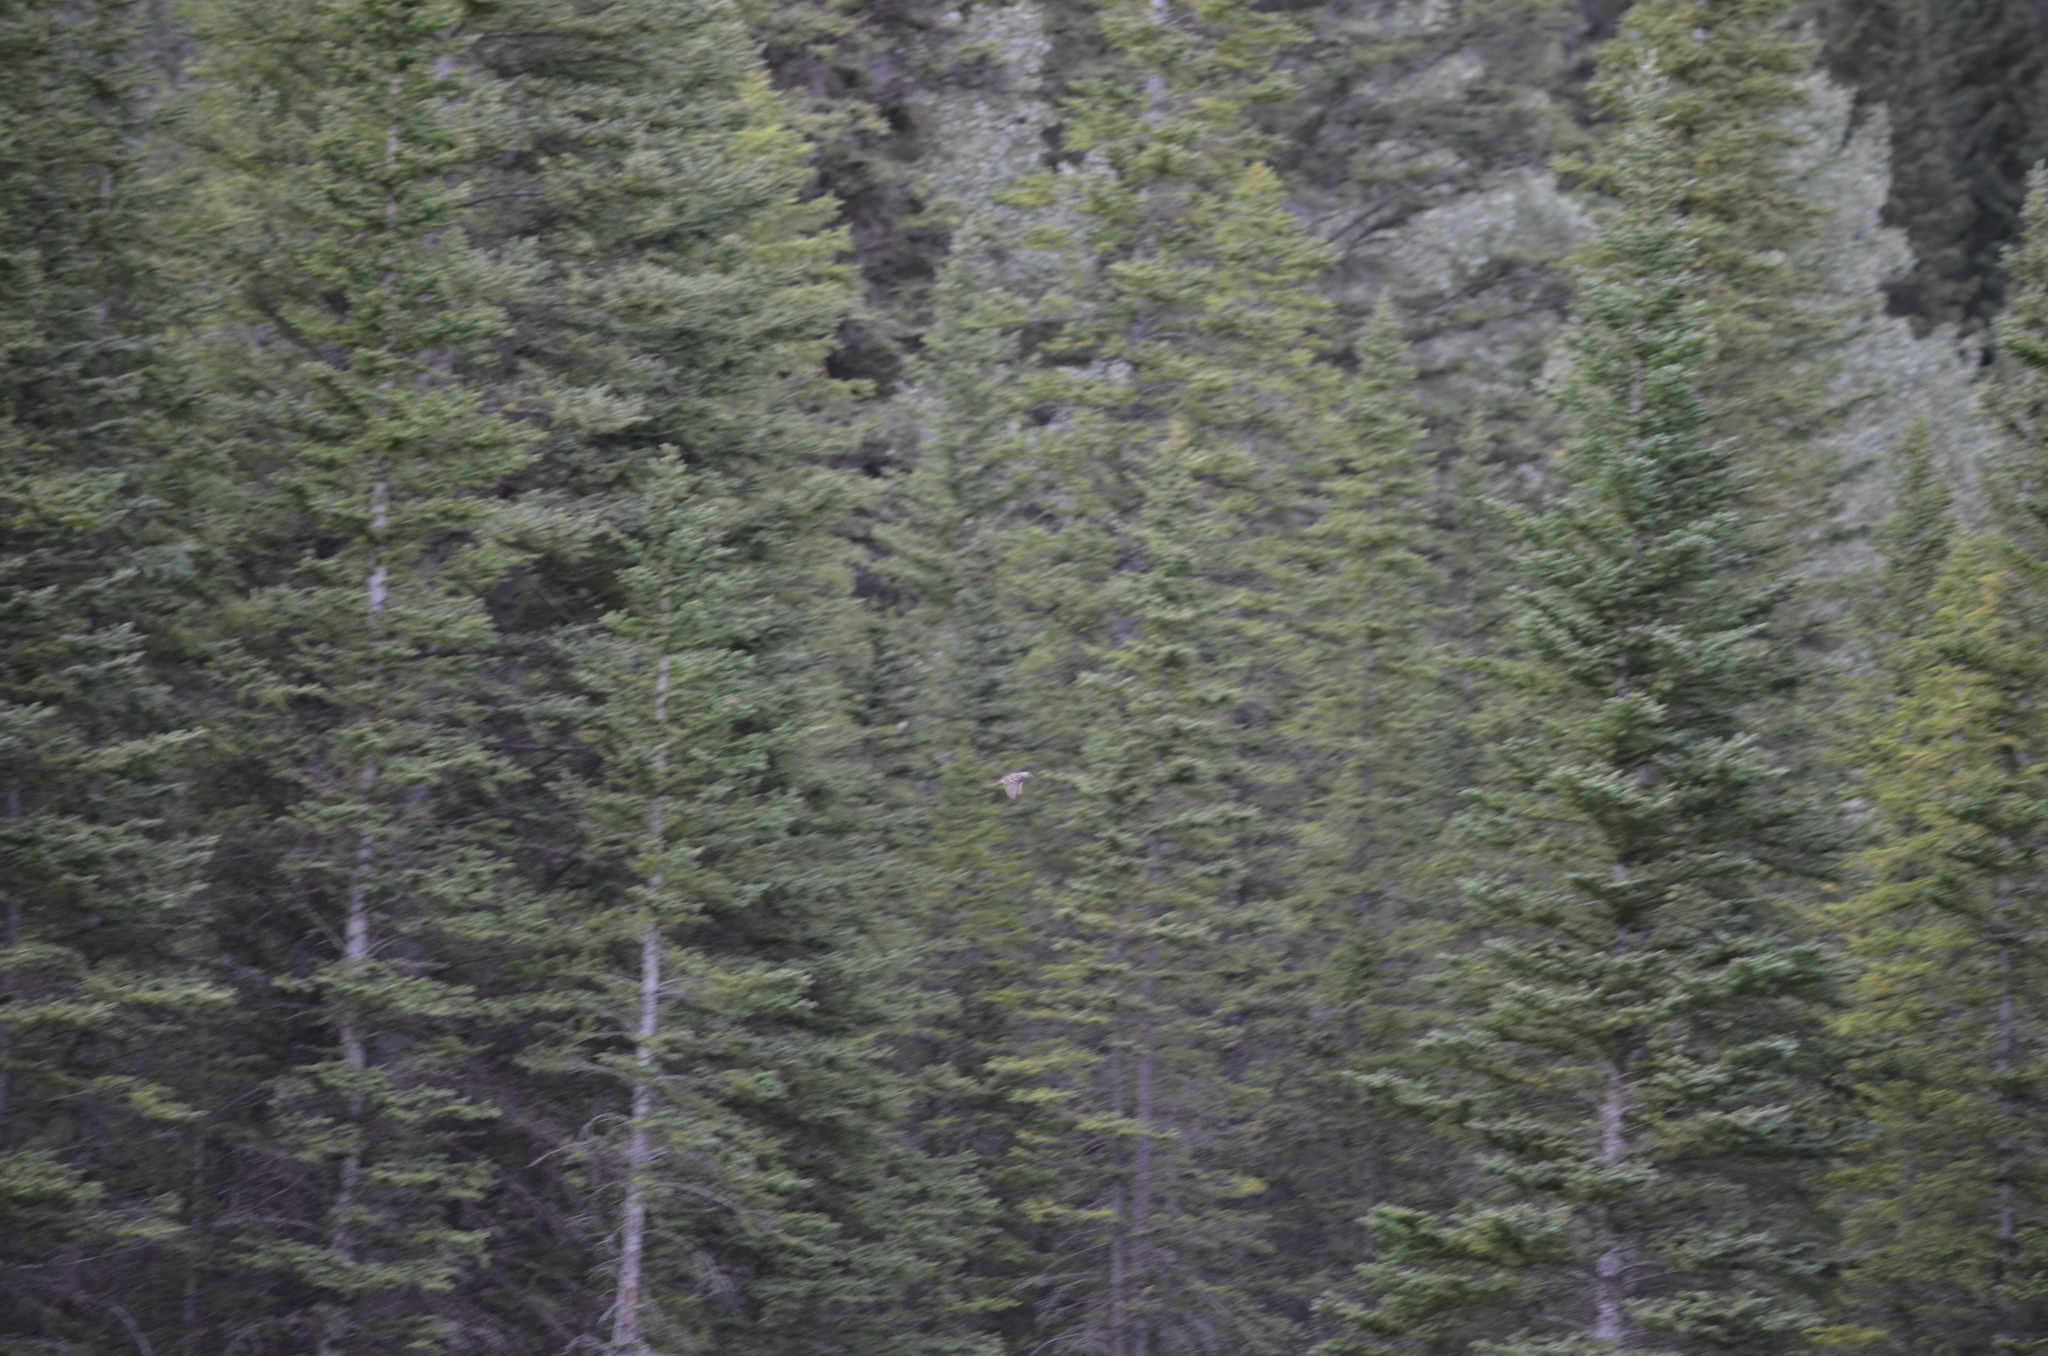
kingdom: Animalia
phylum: Chordata
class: Aves
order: Gruiformes
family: Rallidae
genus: Porzana
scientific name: Porzana carolina
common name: Sora
